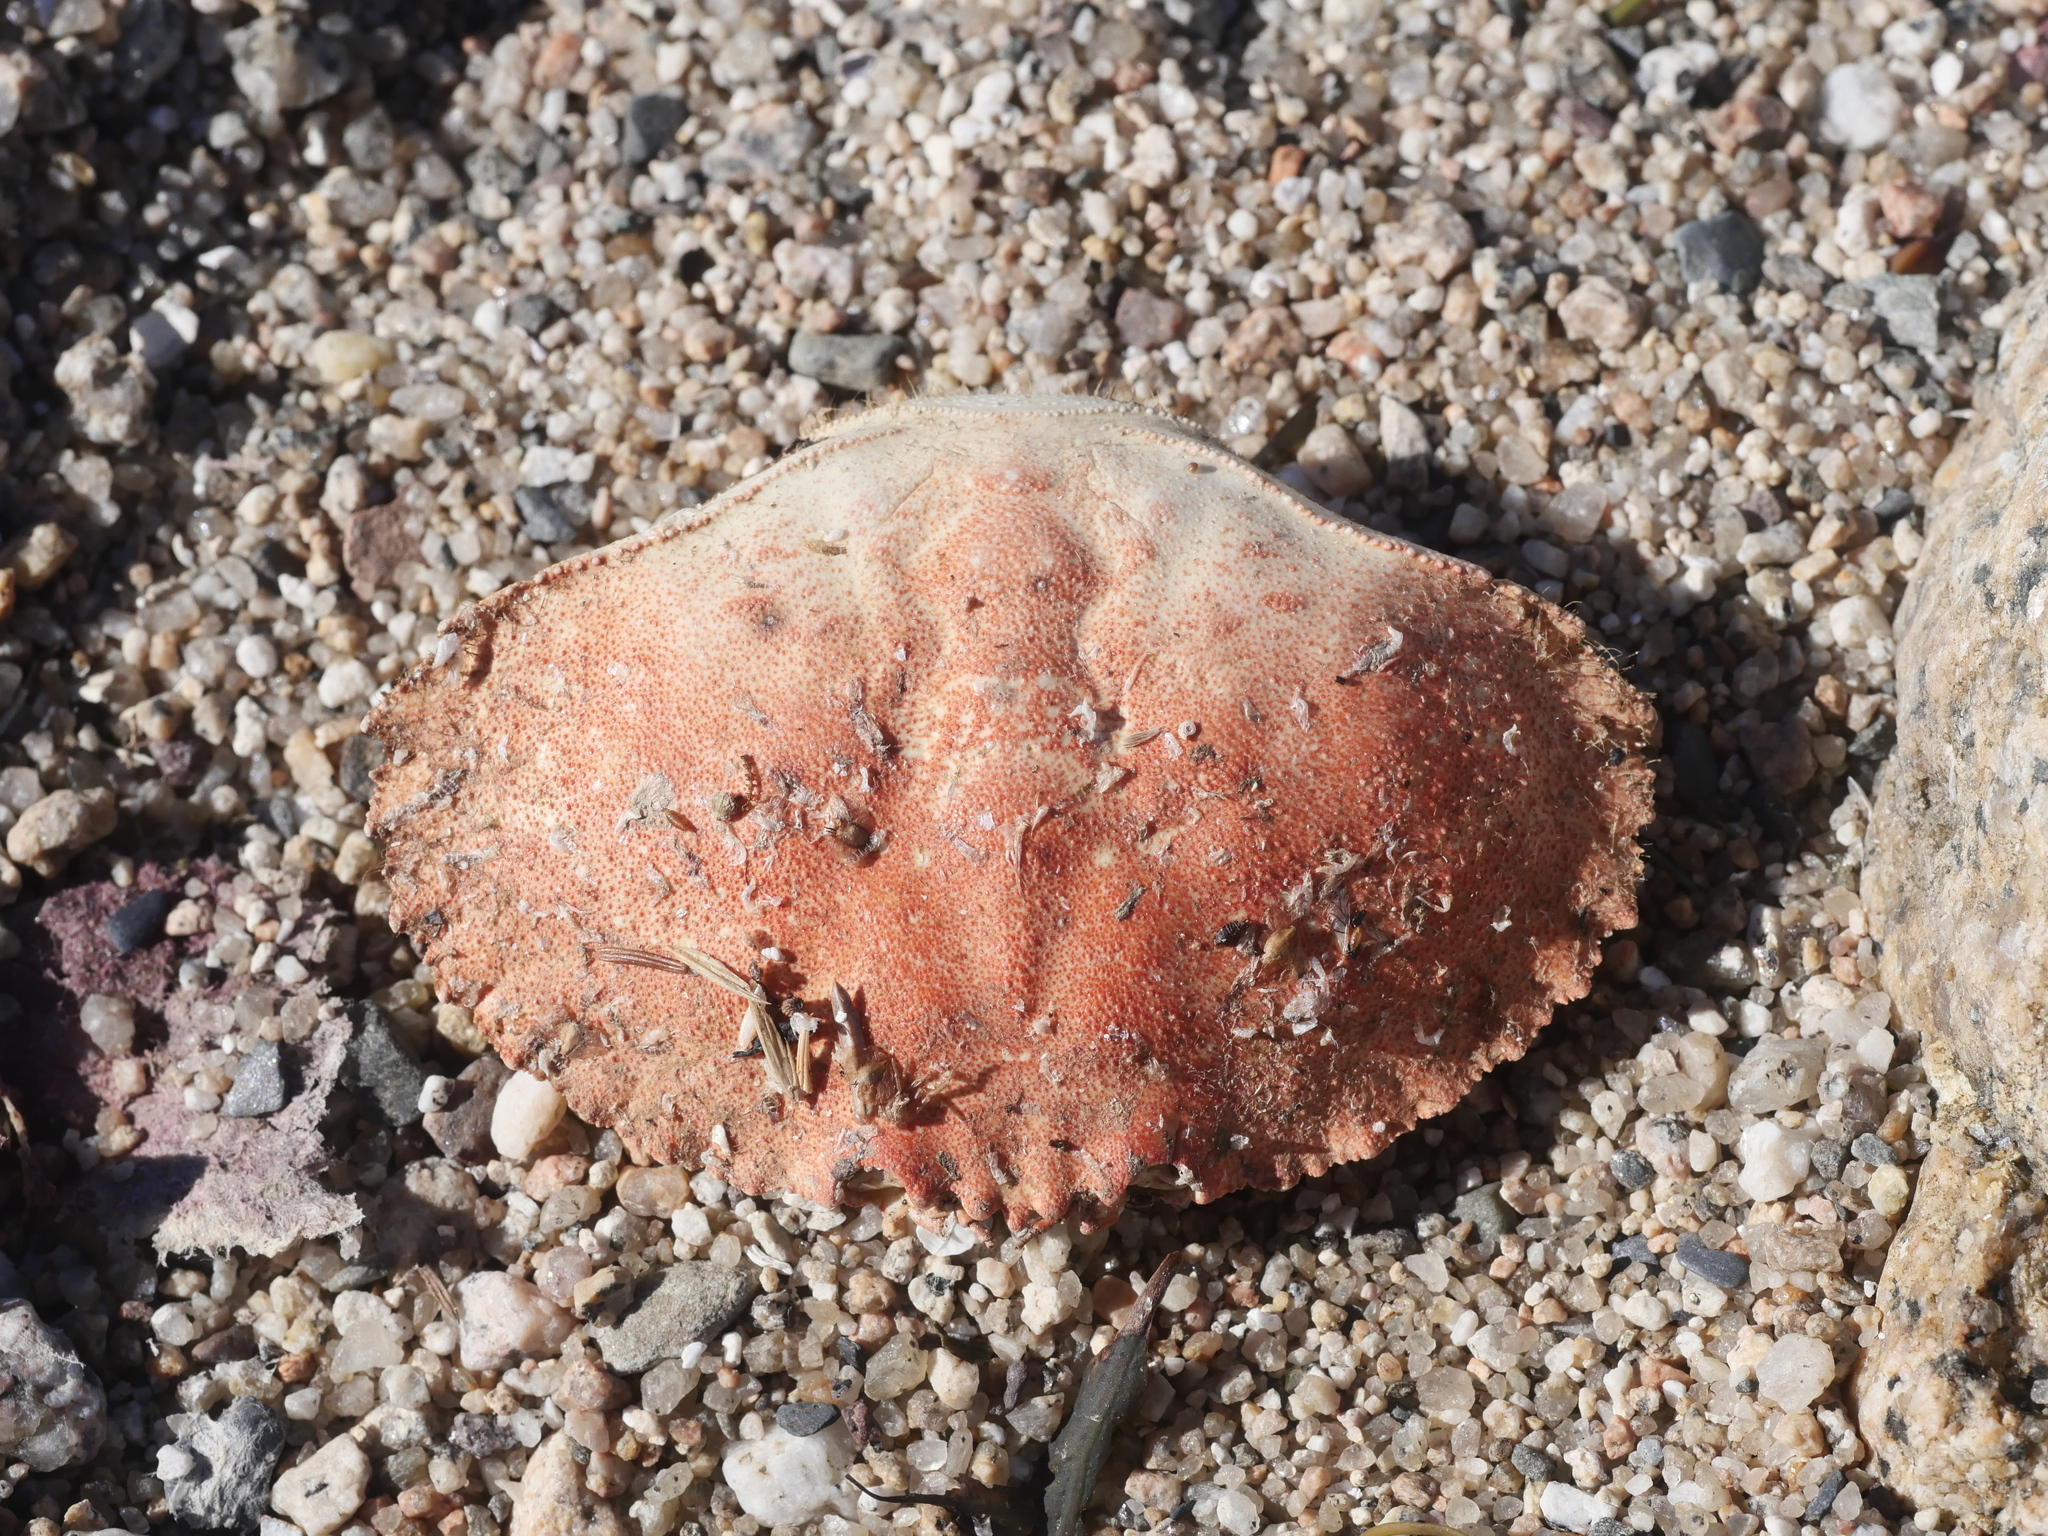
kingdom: Animalia
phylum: Arthropoda
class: Malacostraca
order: Decapoda
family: Cancridae
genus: Cancer
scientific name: Cancer borealis
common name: Jonah crab
